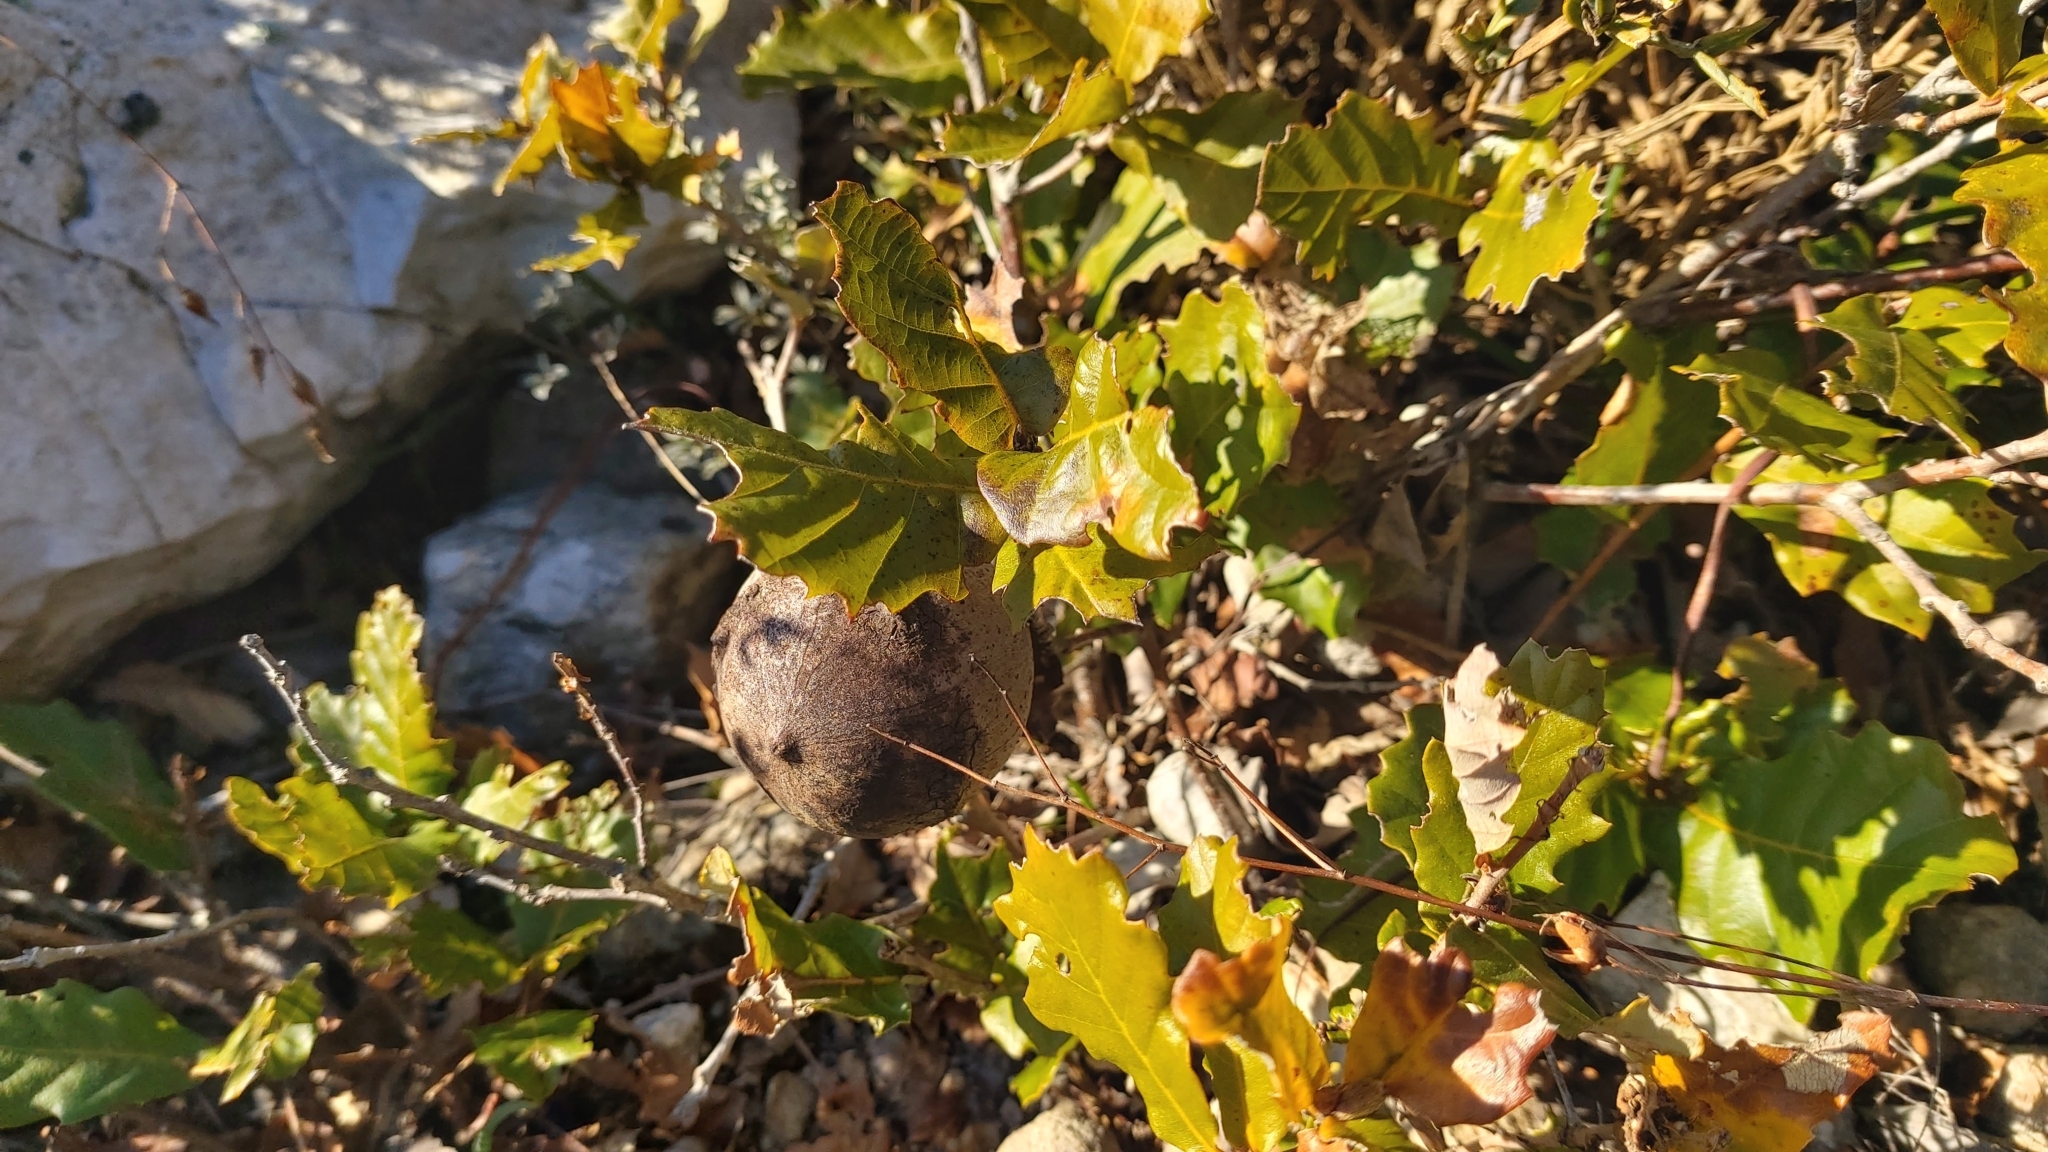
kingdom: Animalia
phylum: Arthropoda
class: Insecta
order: Hymenoptera
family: Cynipidae
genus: Andricus
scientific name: Andricus quercustozae
